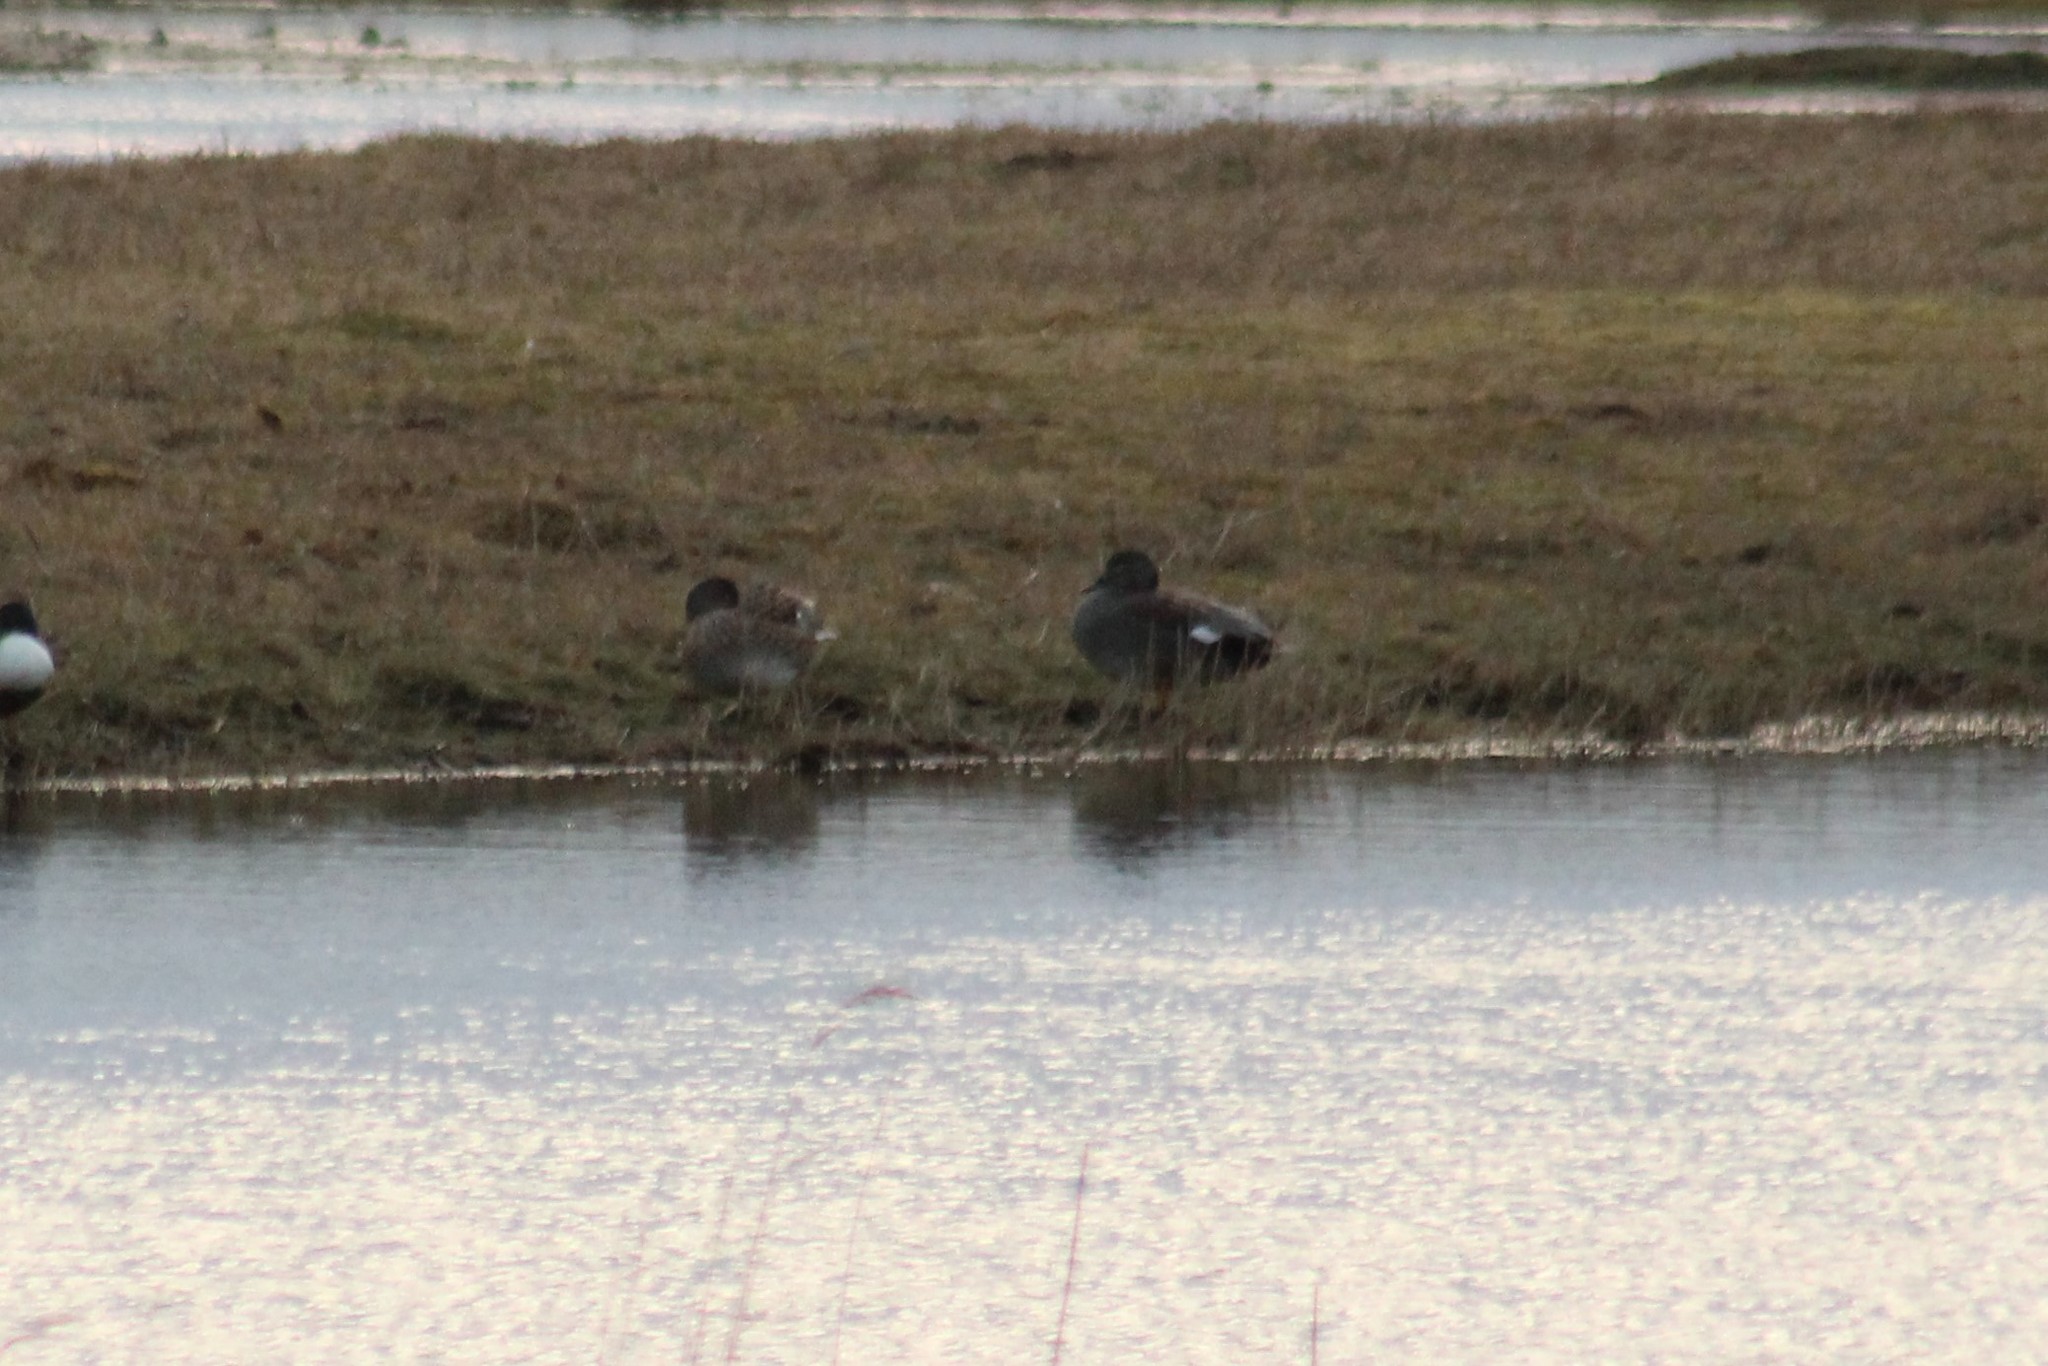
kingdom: Animalia
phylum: Chordata
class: Aves
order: Anseriformes
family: Anatidae
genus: Mareca
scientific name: Mareca strepera
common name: Gadwall
